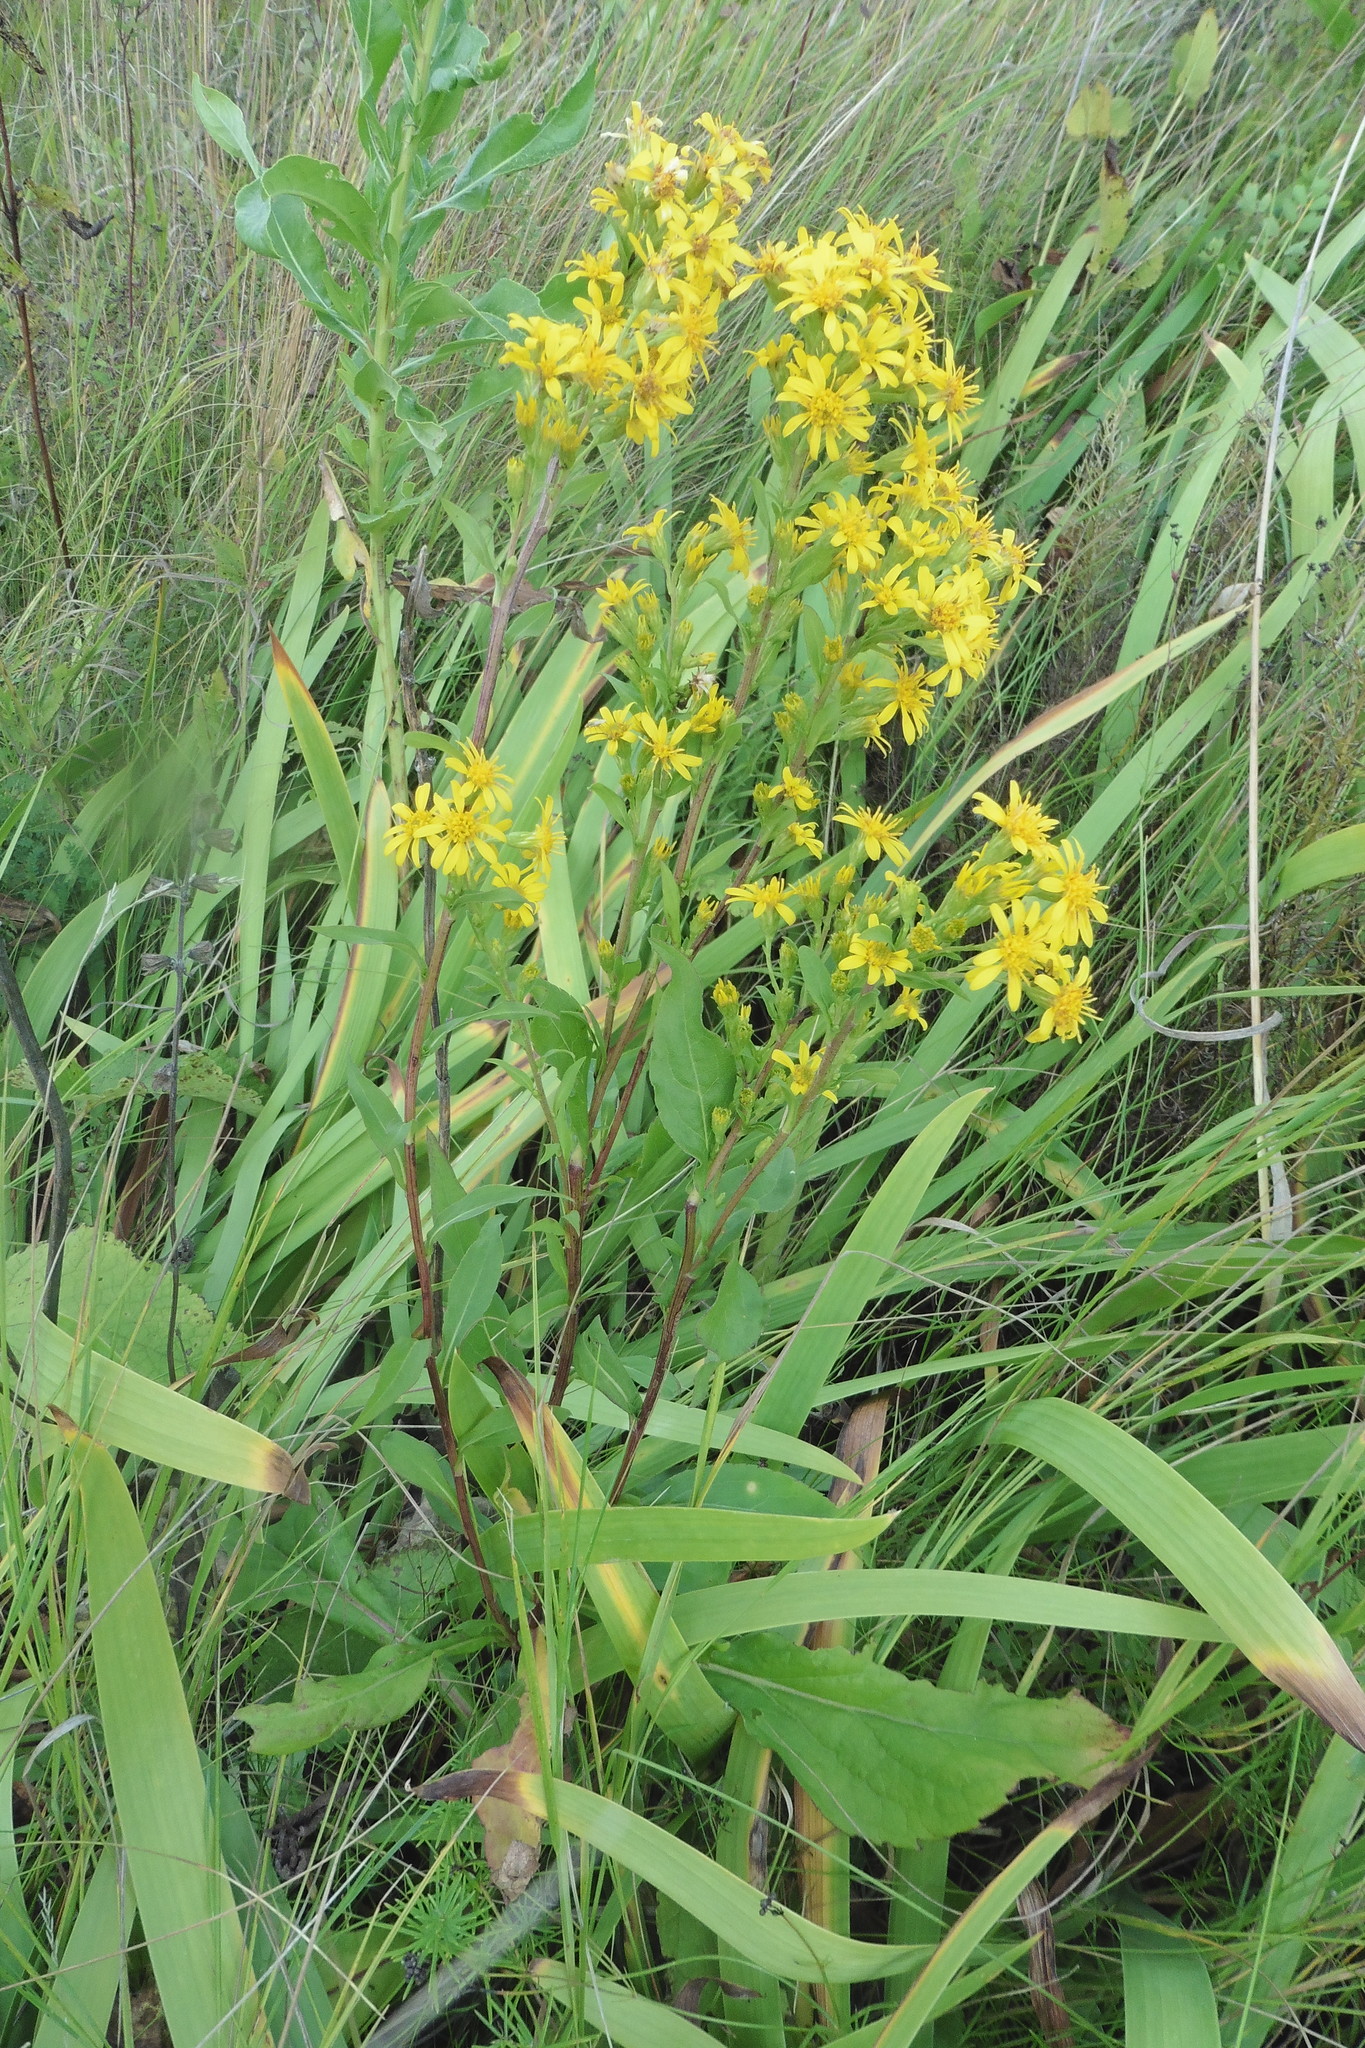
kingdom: Plantae
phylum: Tracheophyta
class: Magnoliopsida
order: Asterales
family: Asteraceae
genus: Solidago
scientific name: Solidago virgaurea
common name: Goldenrod
